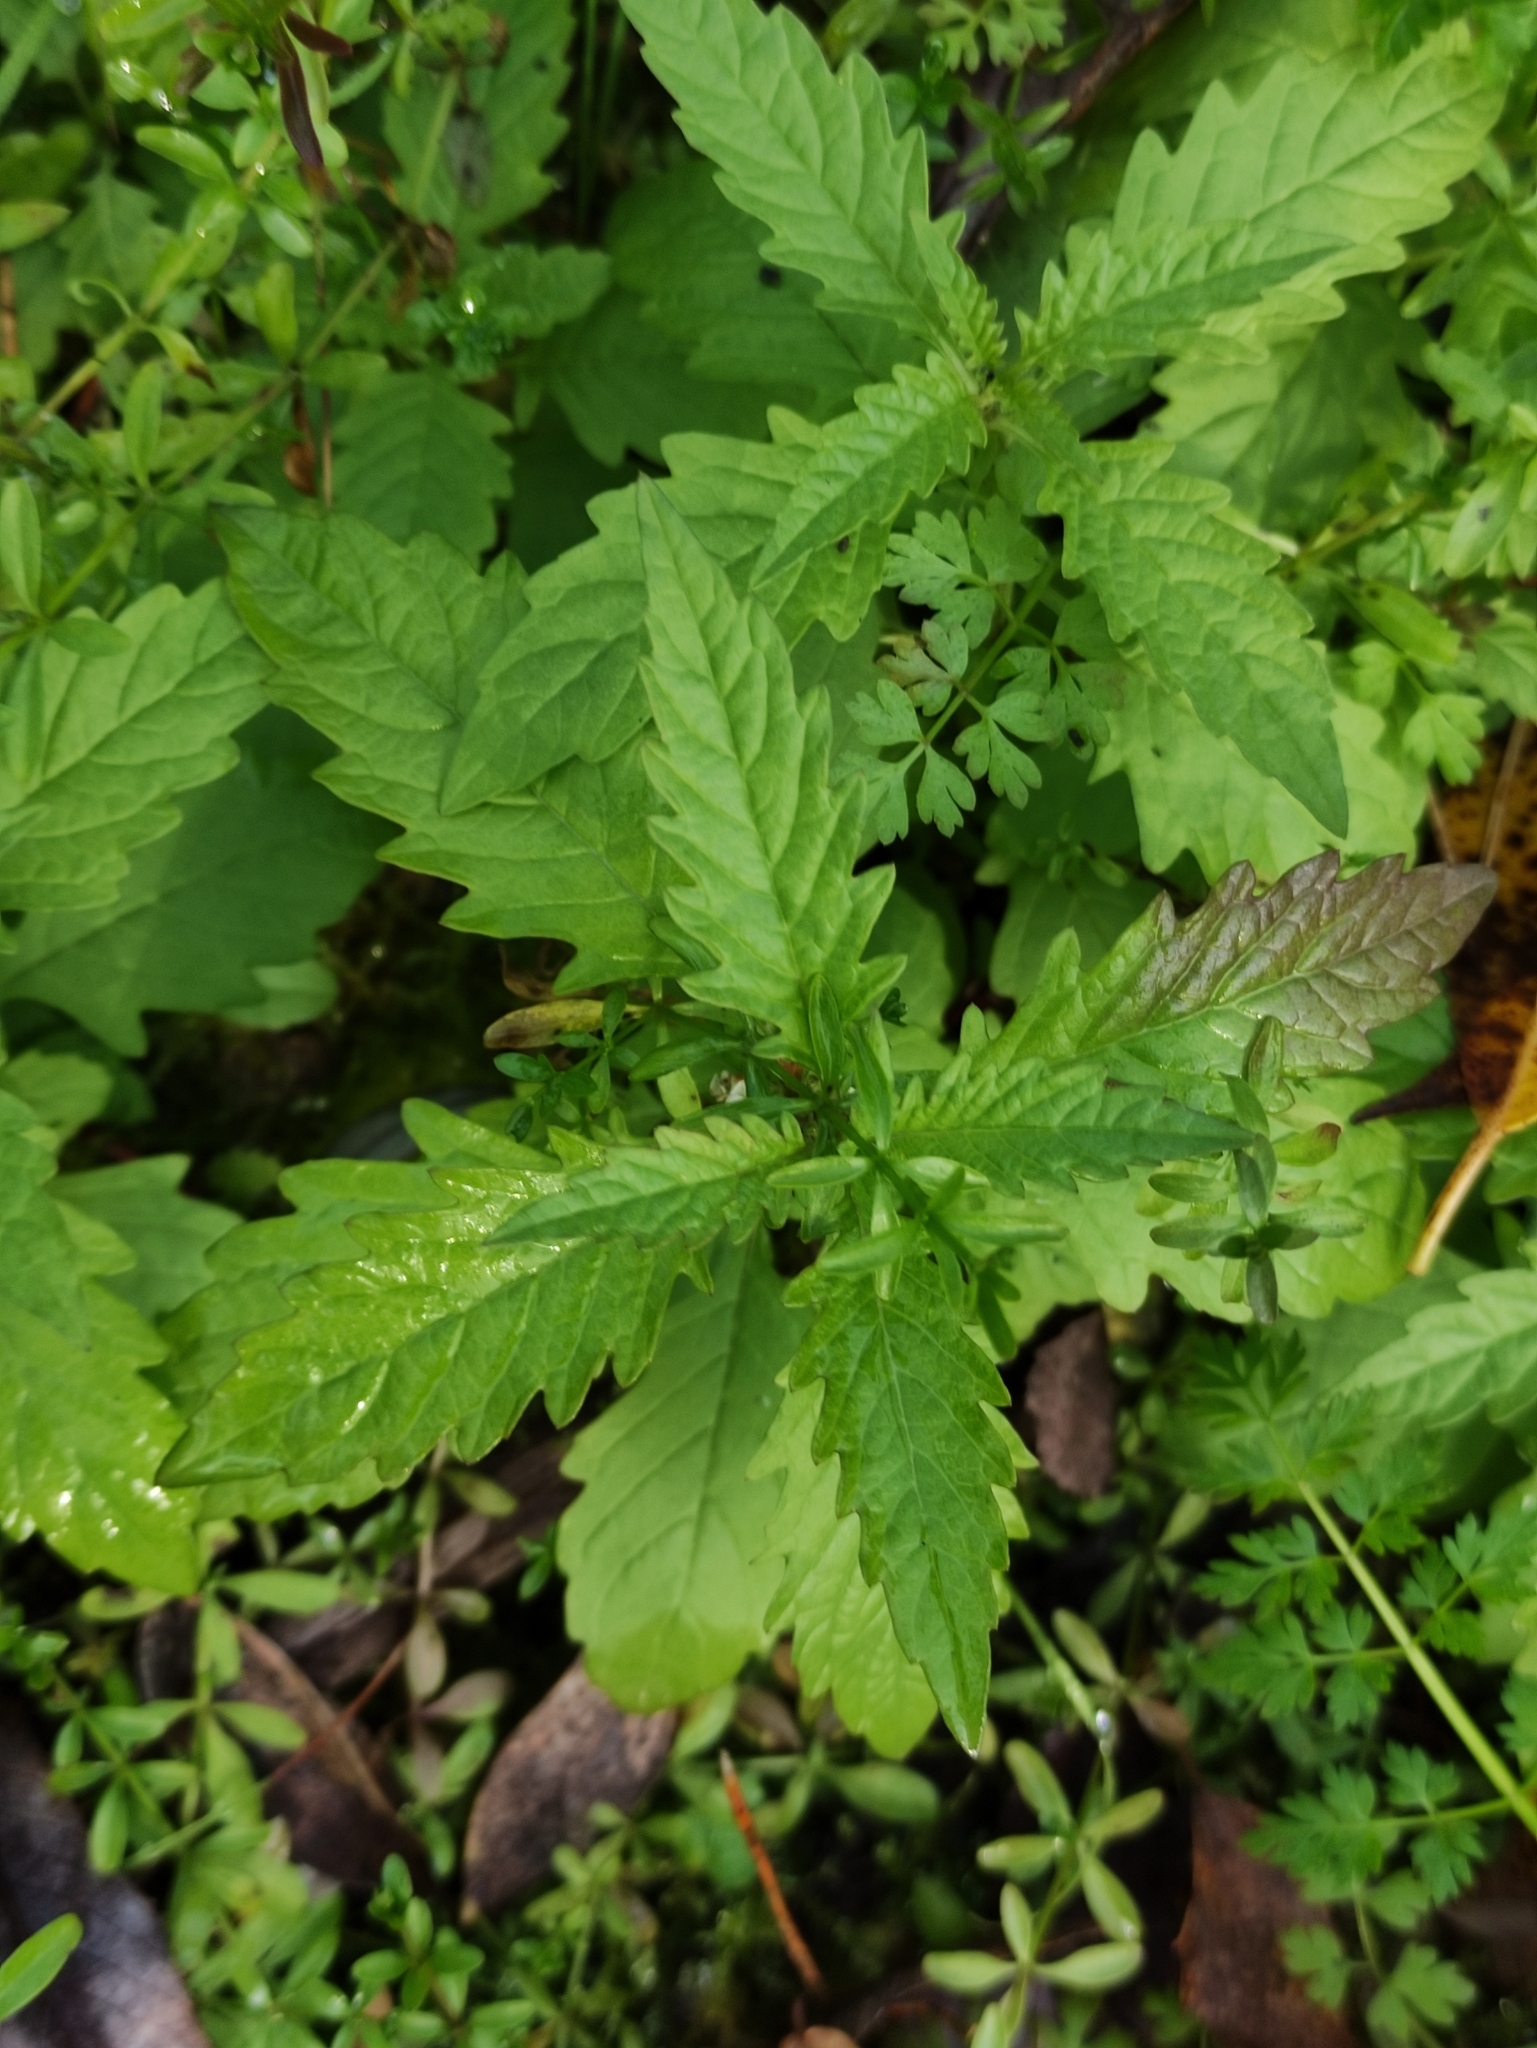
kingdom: Plantae
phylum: Tracheophyta
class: Magnoliopsida
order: Lamiales
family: Lamiaceae
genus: Lycopus
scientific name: Lycopus europaeus
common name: European bugleweed
